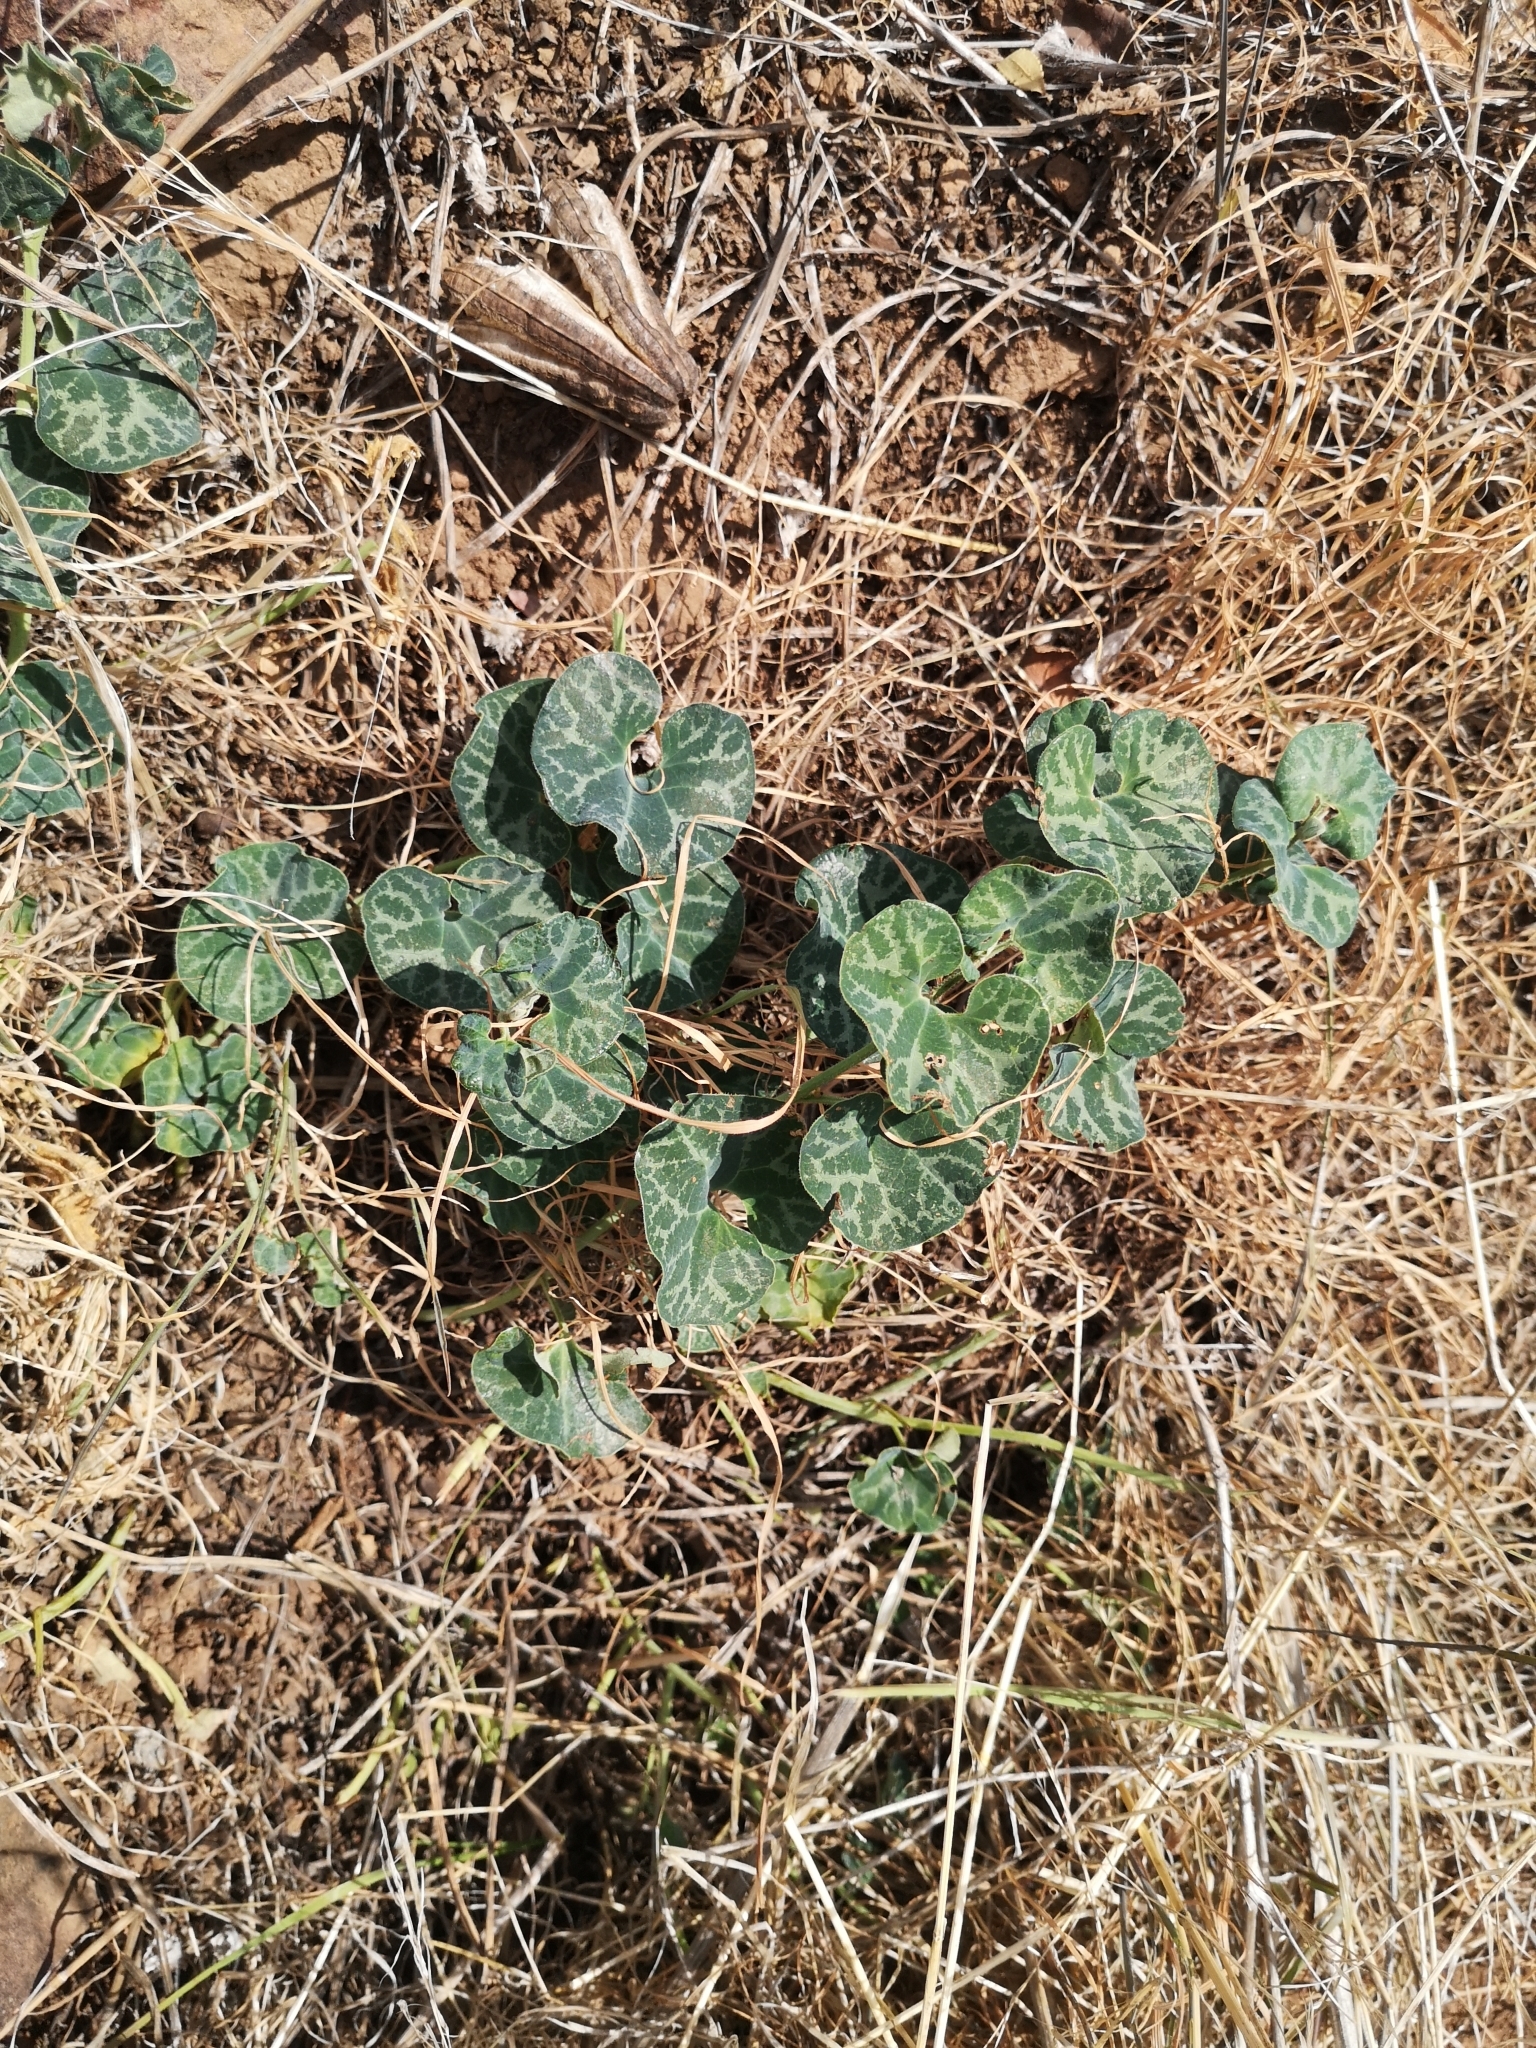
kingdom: Plantae
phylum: Tracheophyta
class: Magnoliopsida
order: Piperales
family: Aristolochiaceae
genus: Aristolochia
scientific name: Aristolochia chilensis
